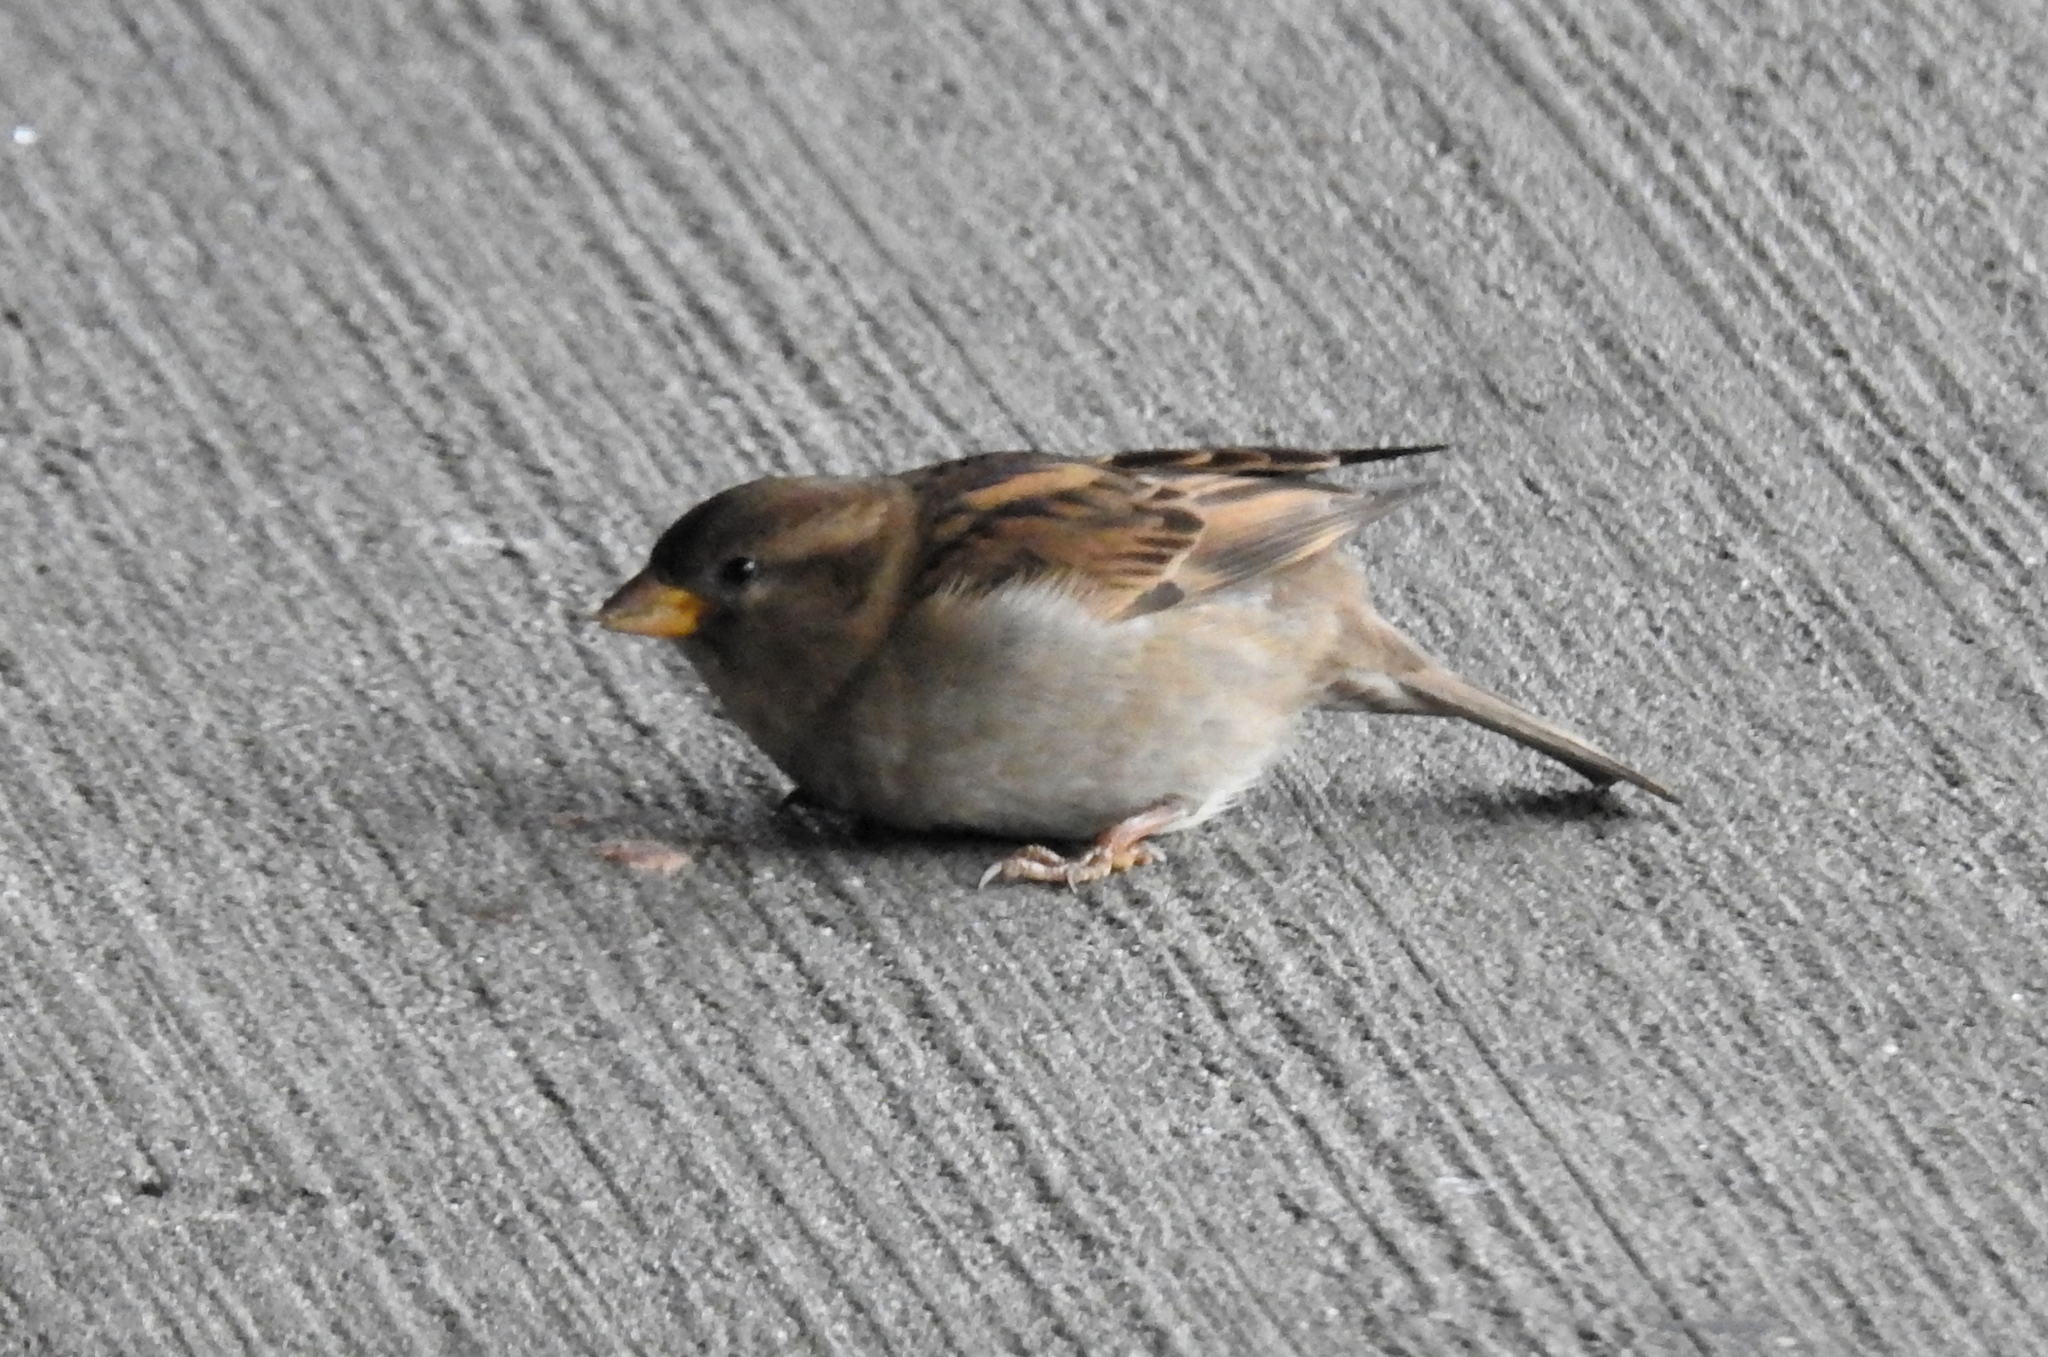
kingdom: Animalia
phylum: Chordata
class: Aves
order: Passeriformes
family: Passeridae
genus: Passer
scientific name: Passer domesticus
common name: House sparrow
